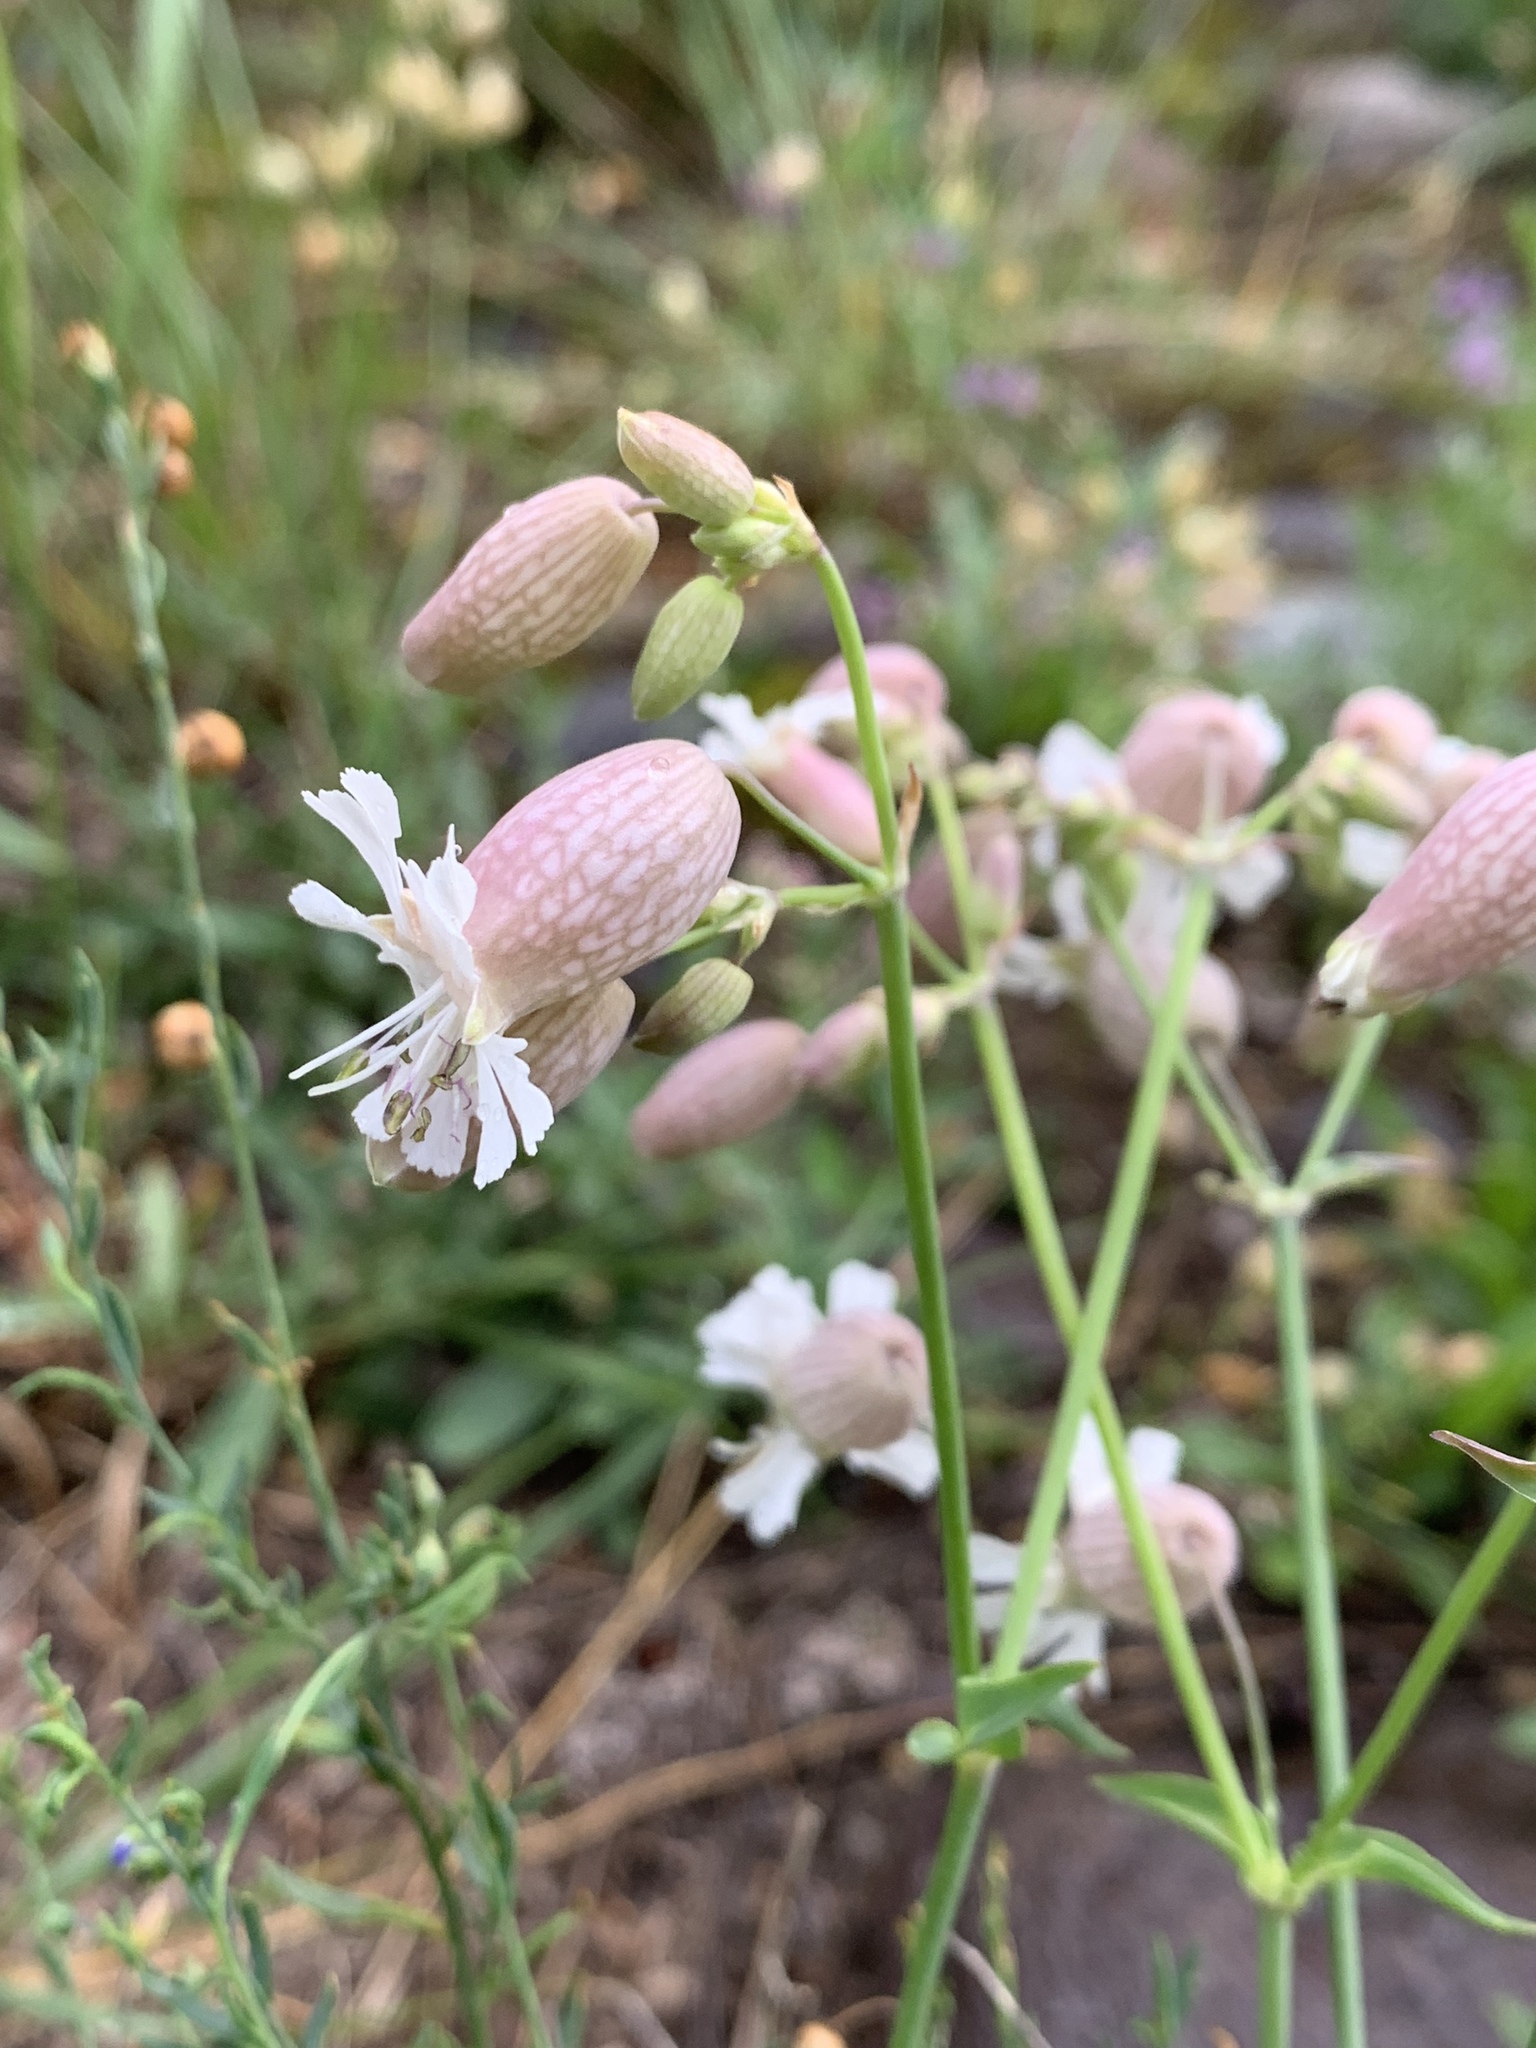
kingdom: Plantae
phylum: Tracheophyta
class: Magnoliopsida
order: Caryophyllales
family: Caryophyllaceae
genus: Silene
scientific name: Silene vulgaris
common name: Bladder campion
